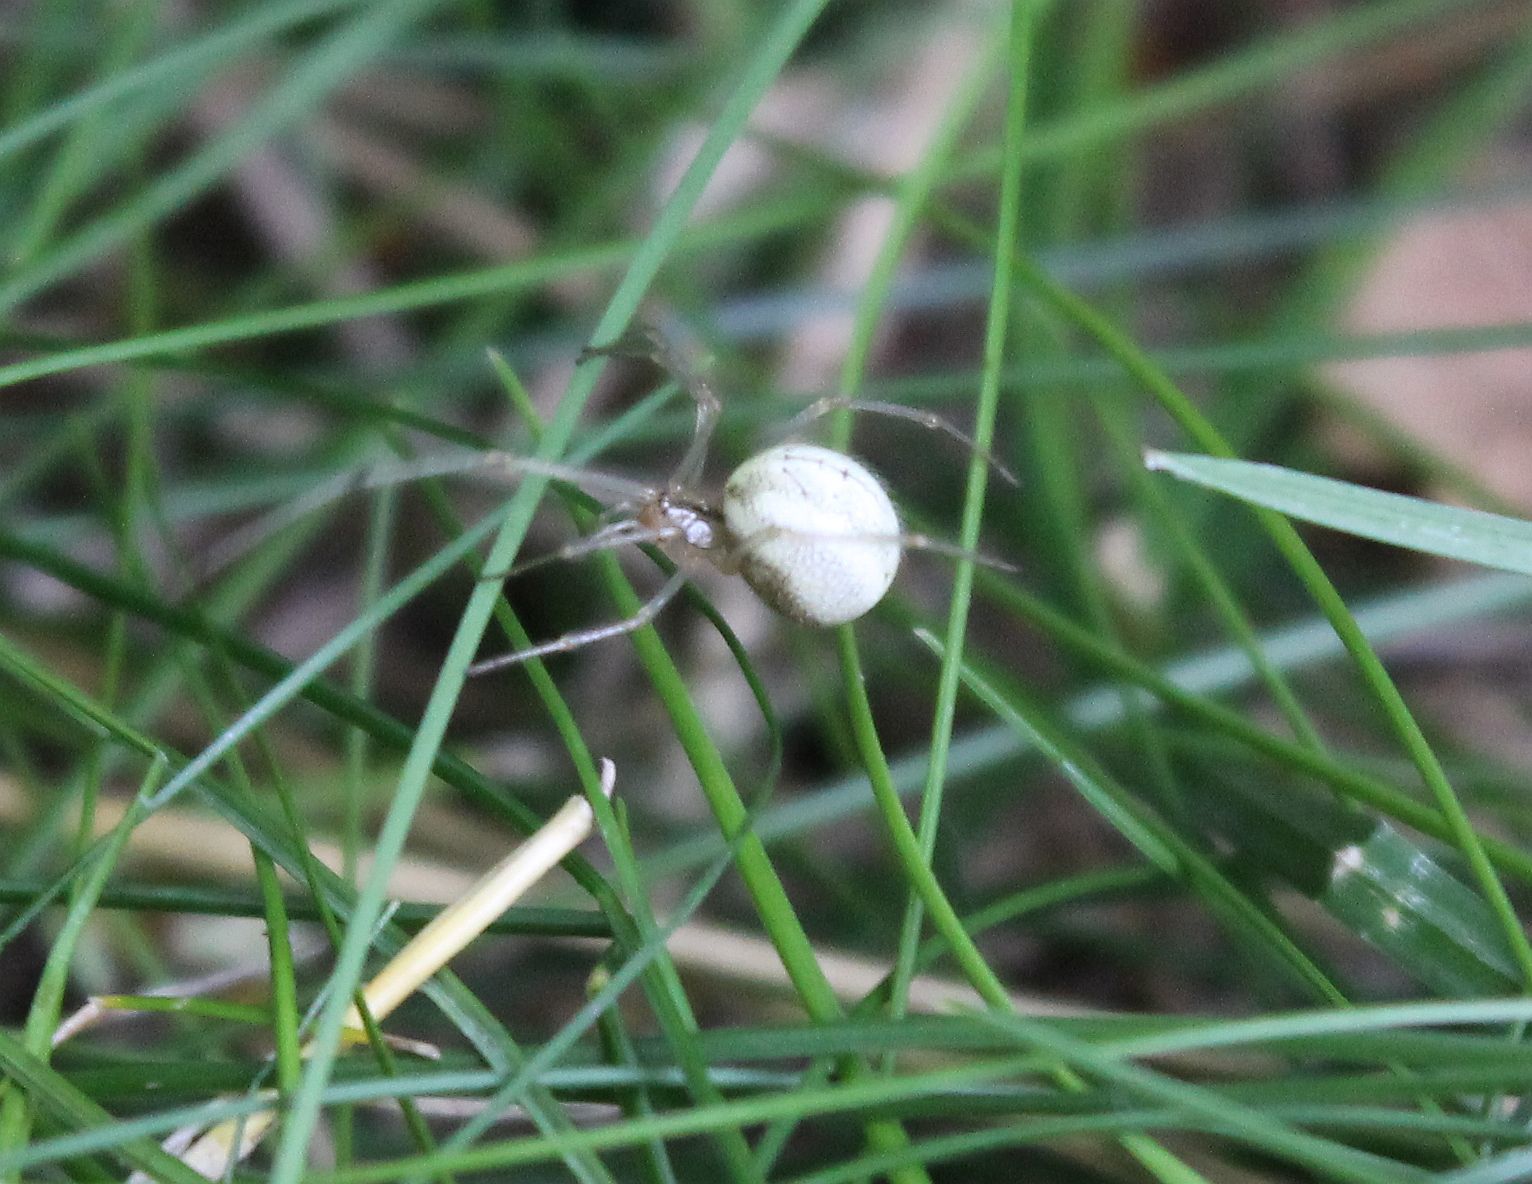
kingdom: Animalia
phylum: Arthropoda
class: Arachnida
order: Araneae
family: Theridiidae
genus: Enoplognatha
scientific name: Enoplognatha ovata
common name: Common candy-striped spider
